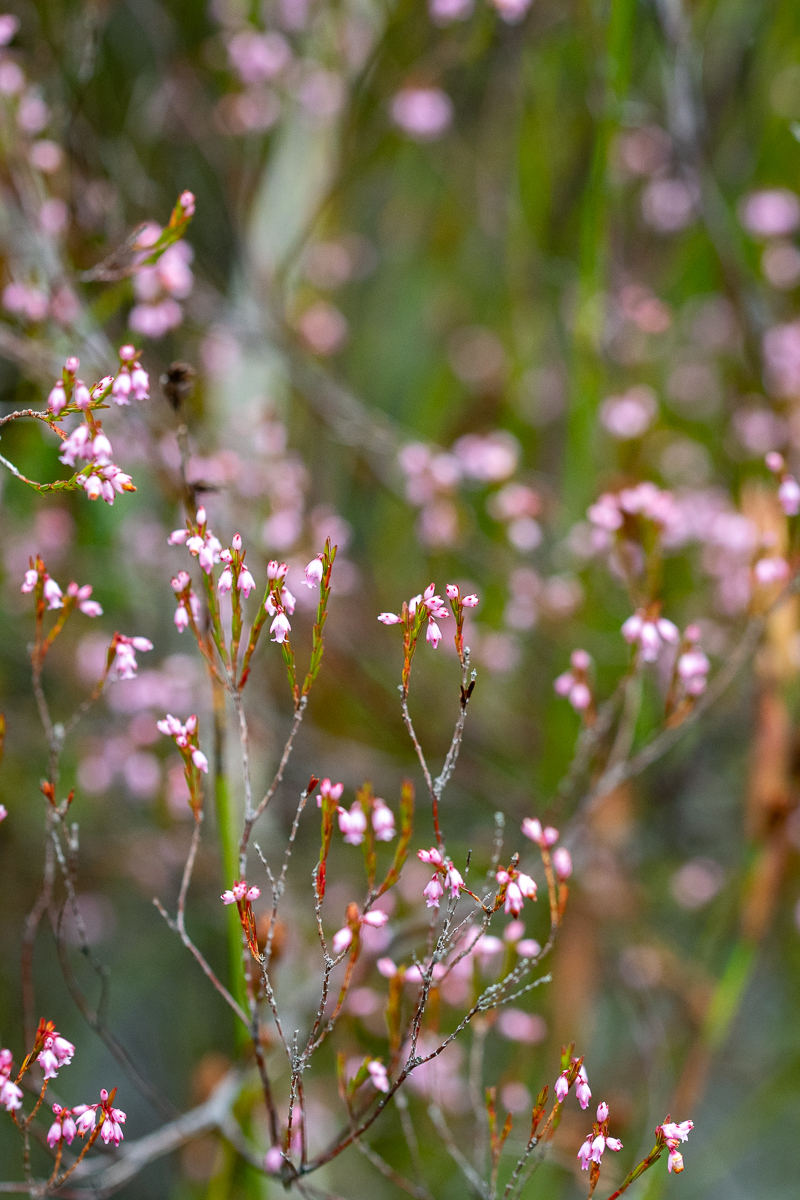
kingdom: Plantae
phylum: Tracheophyta
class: Magnoliopsida
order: Ericales
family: Ericaceae
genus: Erica
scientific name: Erica articularis
